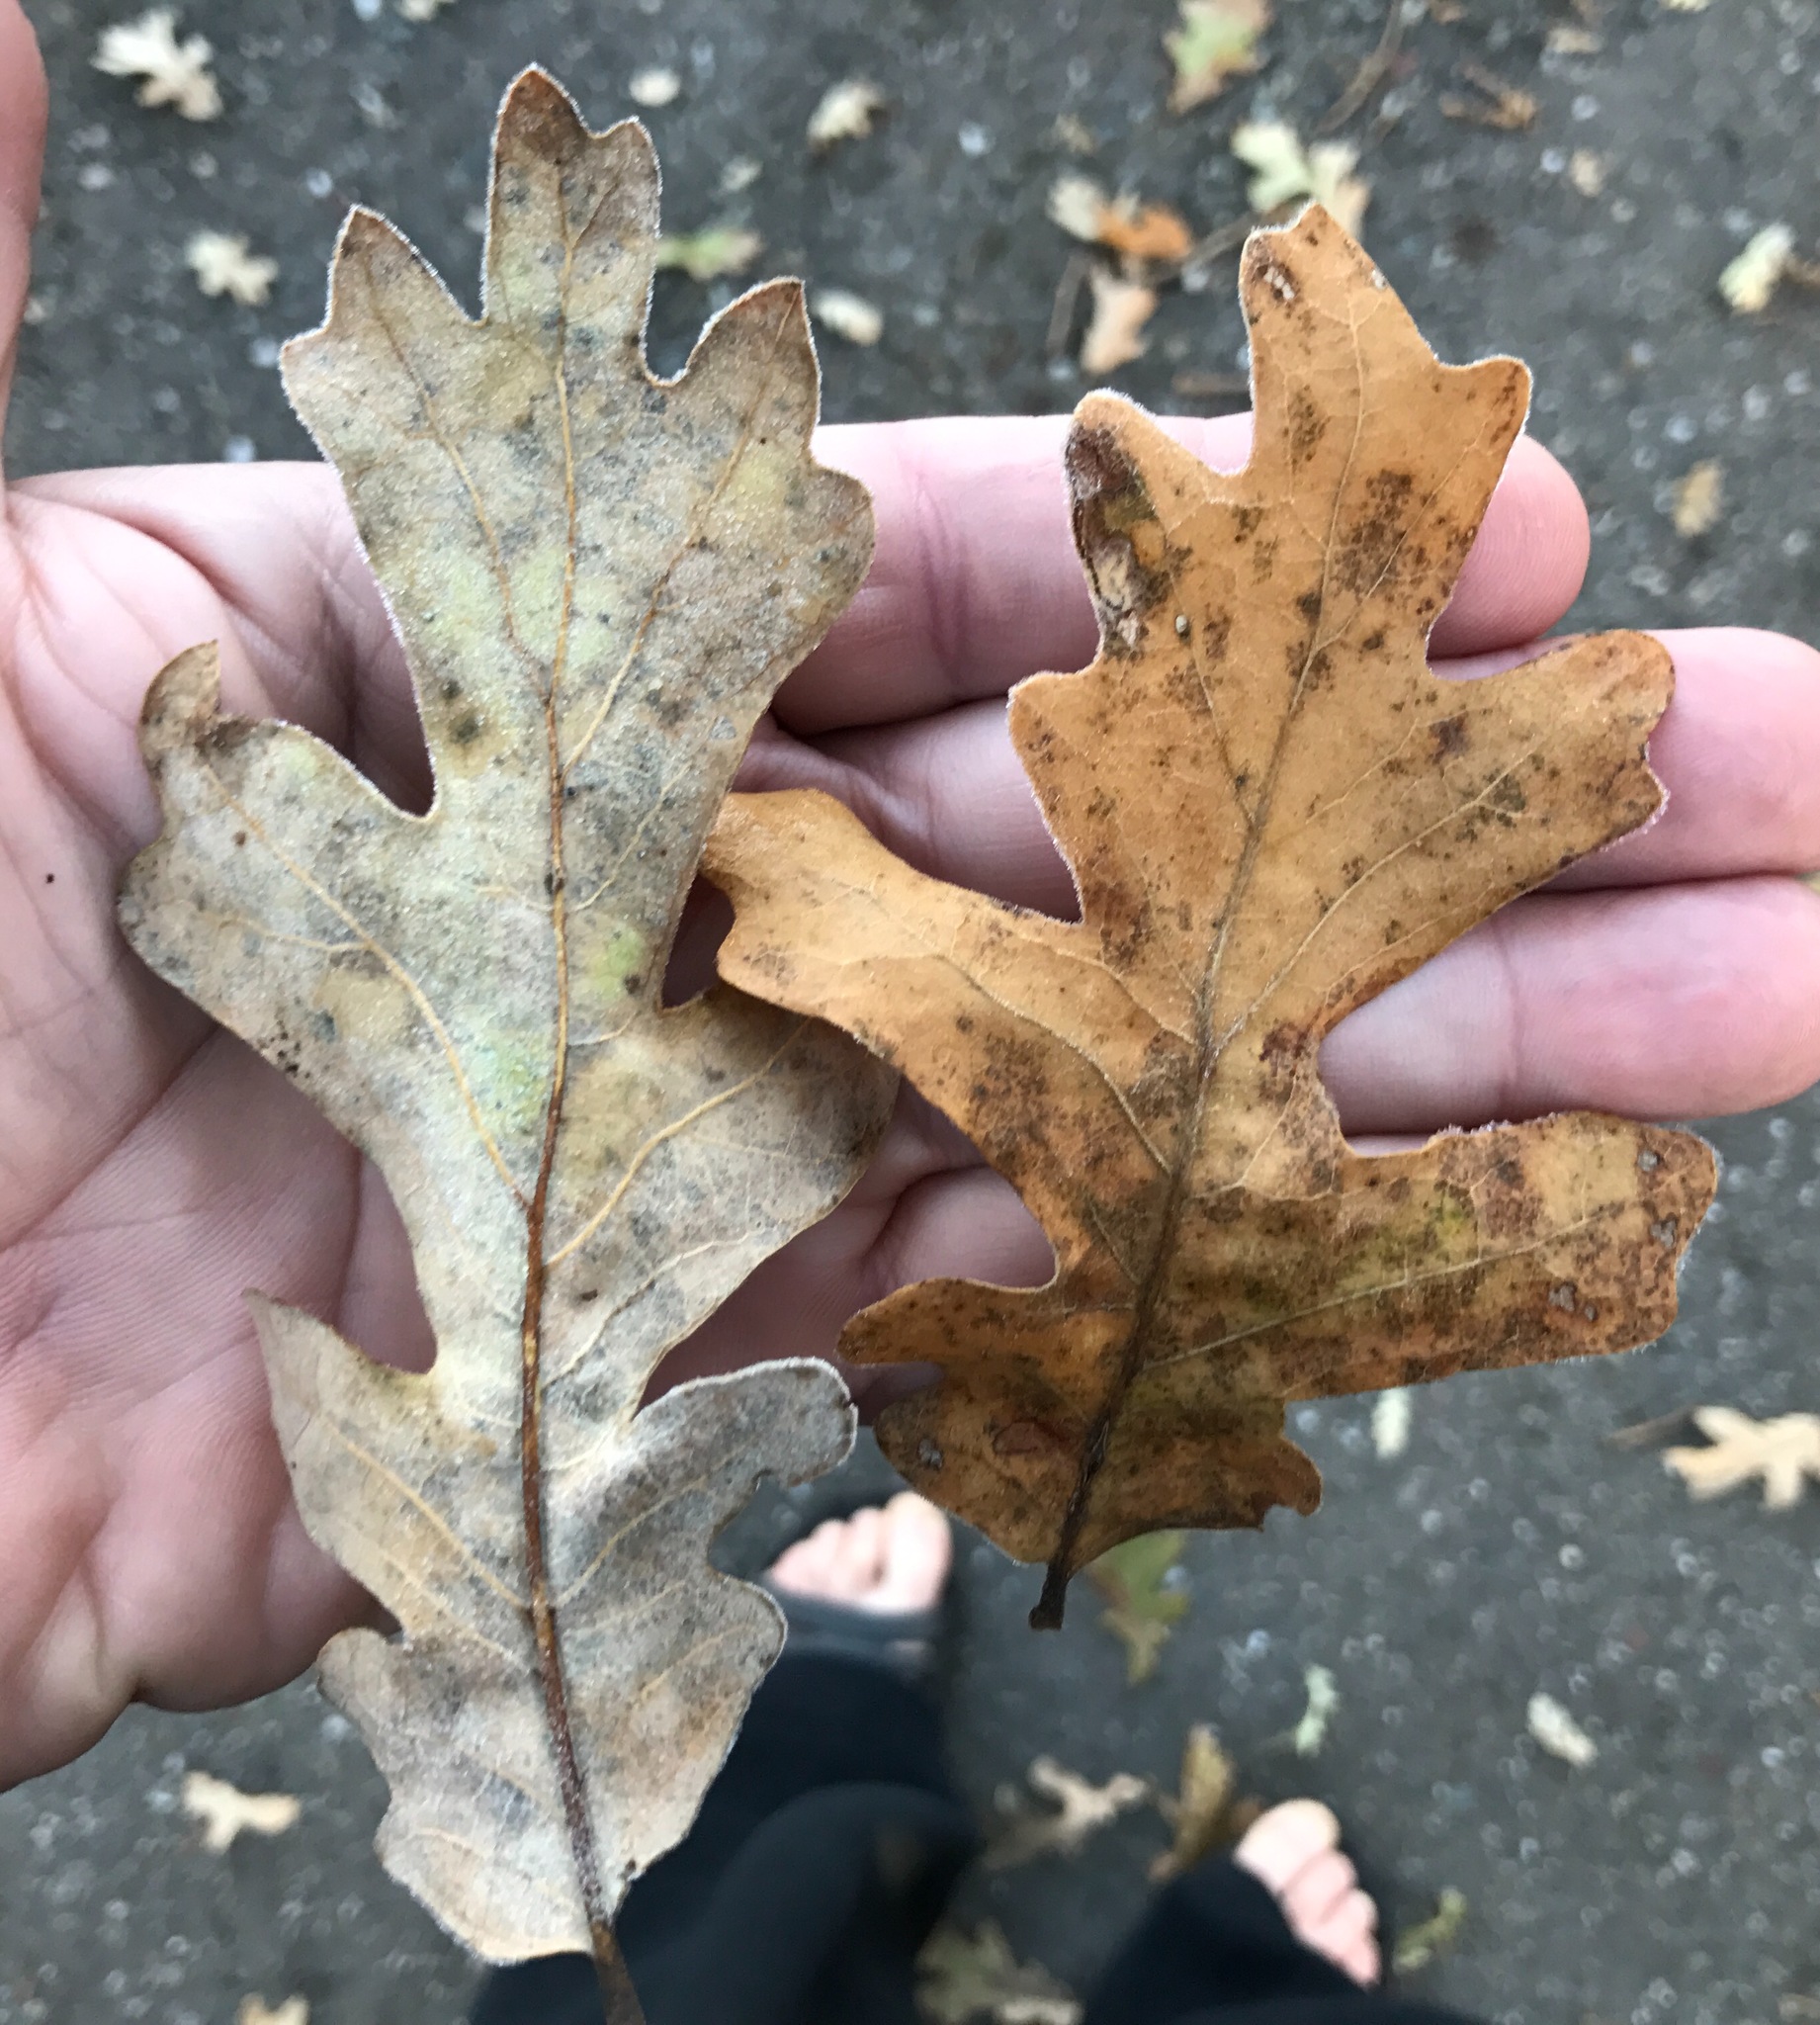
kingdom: Plantae
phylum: Tracheophyta
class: Magnoliopsida
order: Fagales
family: Fagaceae
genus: Quercus
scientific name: Quercus lobata
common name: Valley oak
